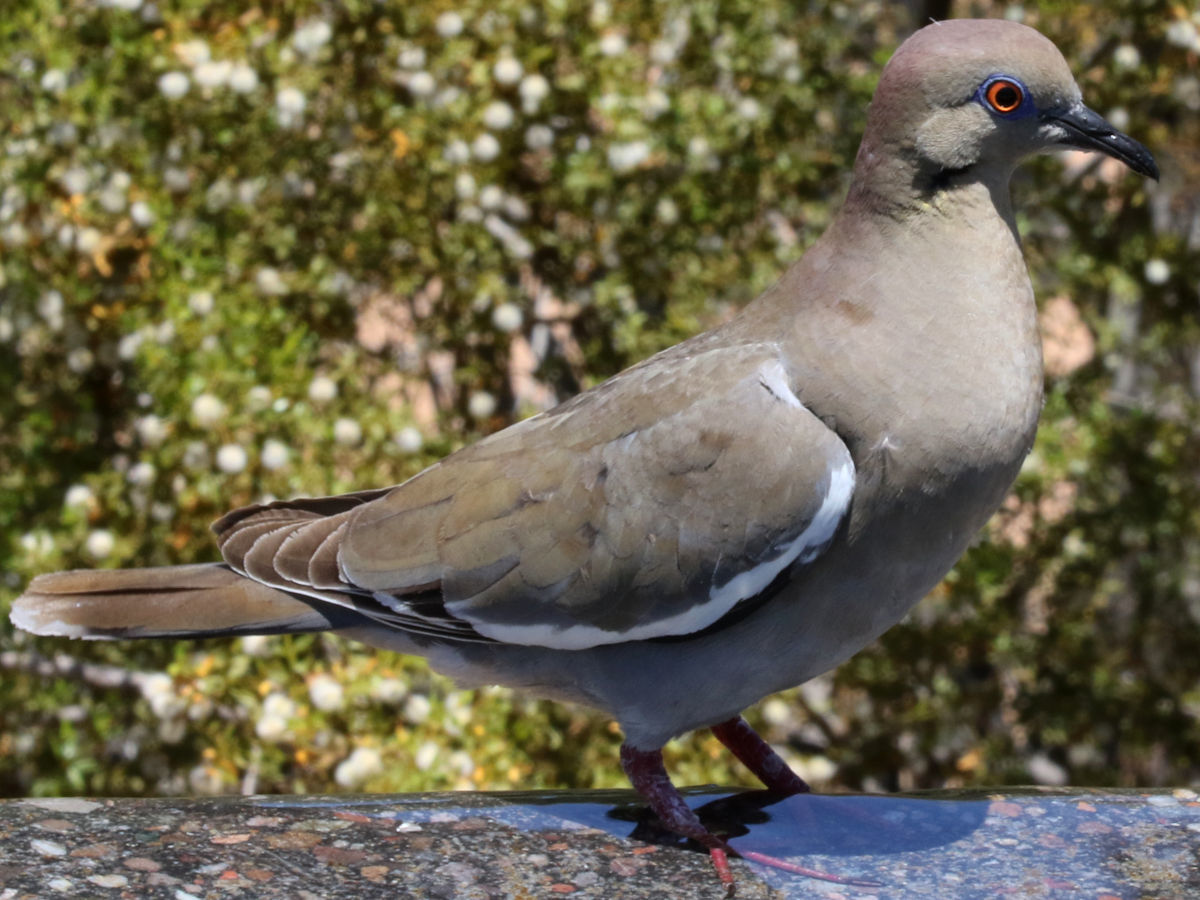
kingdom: Animalia
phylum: Chordata
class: Aves
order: Columbiformes
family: Columbidae
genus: Zenaida
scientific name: Zenaida asiatica
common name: White-winged dove
